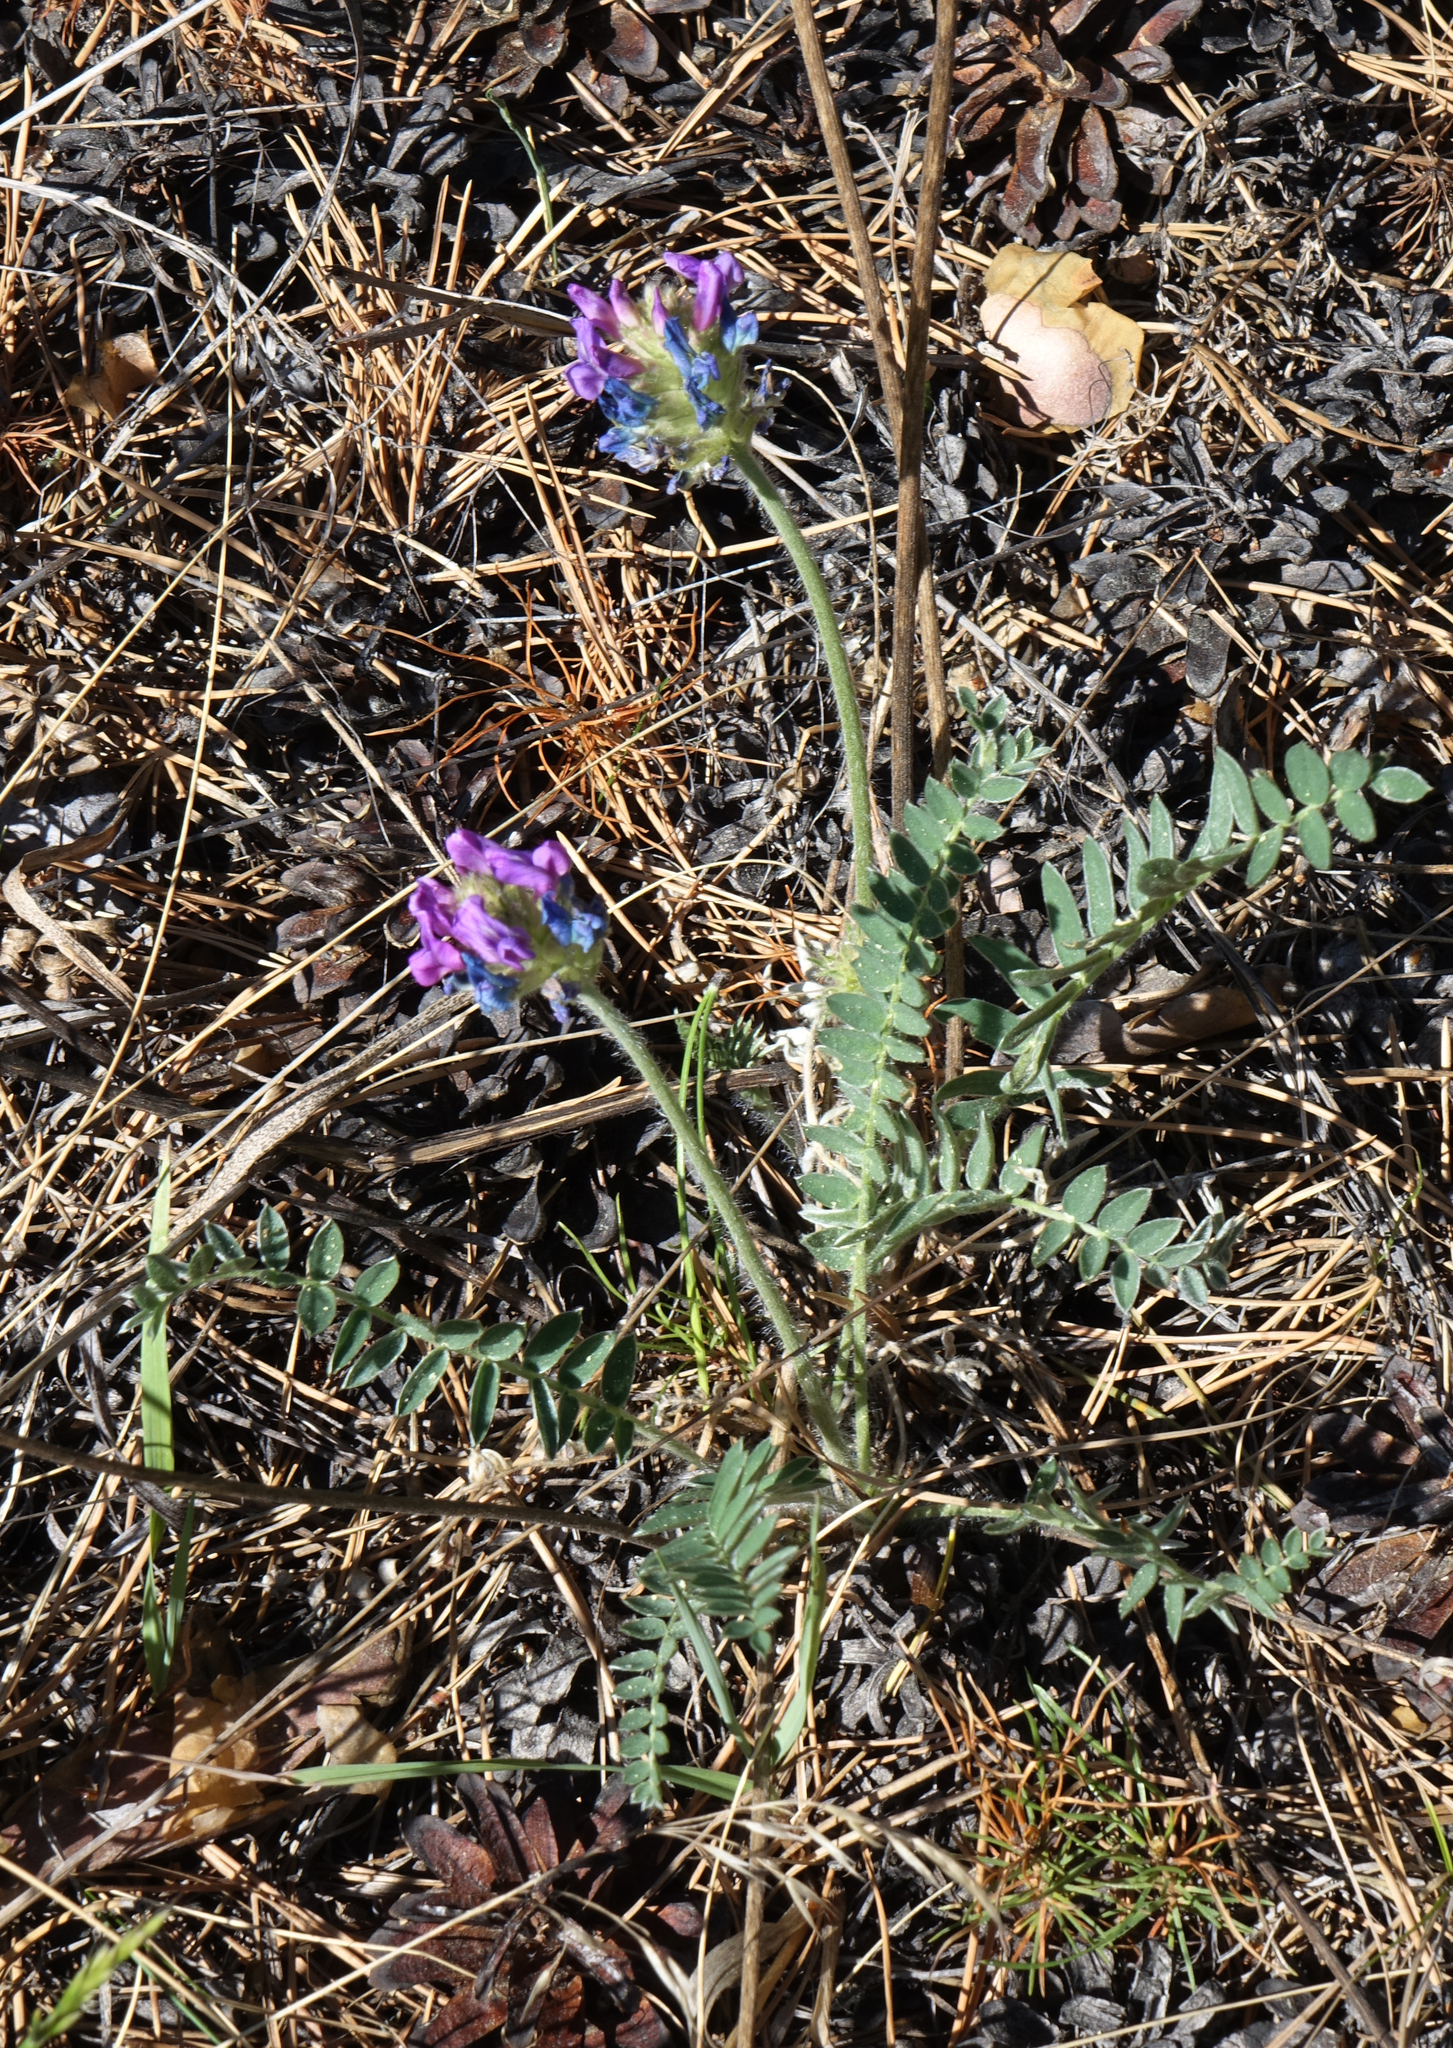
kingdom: Plantae
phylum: Tracheophyta
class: Magnoliopsida
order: Fabales
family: Fabaceae
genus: Oxytropis
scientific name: Oxytropis strobilacea
